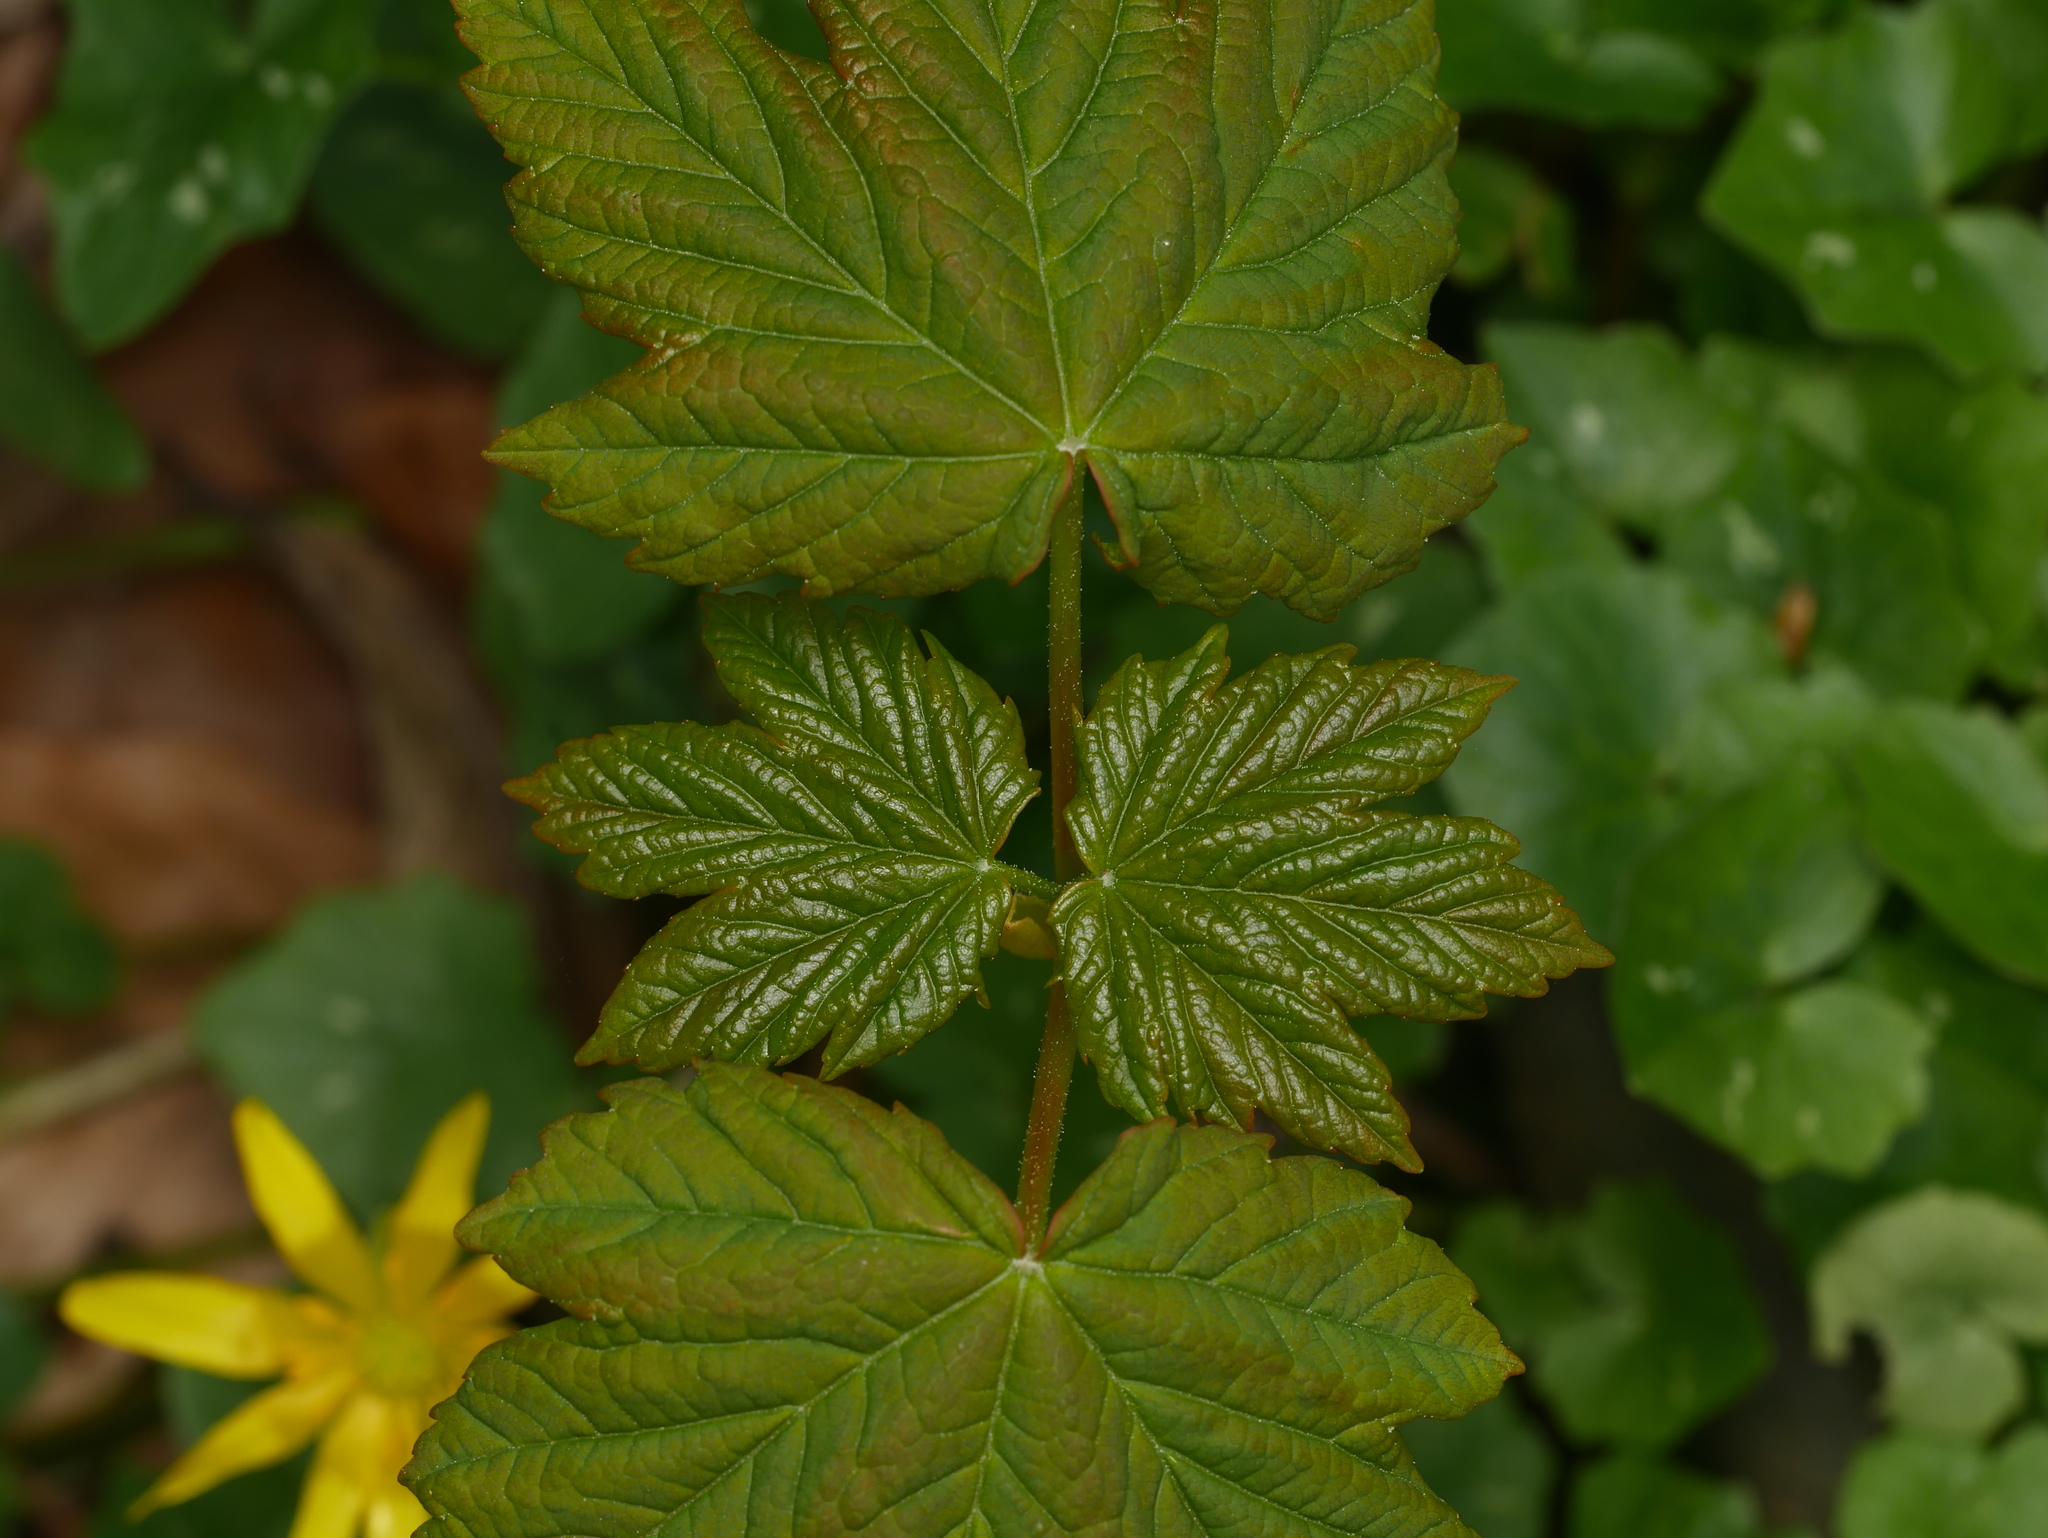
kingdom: Plantae
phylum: Tracheophyta
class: Magnoliopsida
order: Sapindales
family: Sapindaceae
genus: Acer
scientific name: Acer pseudoplatanus
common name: Sycamore
